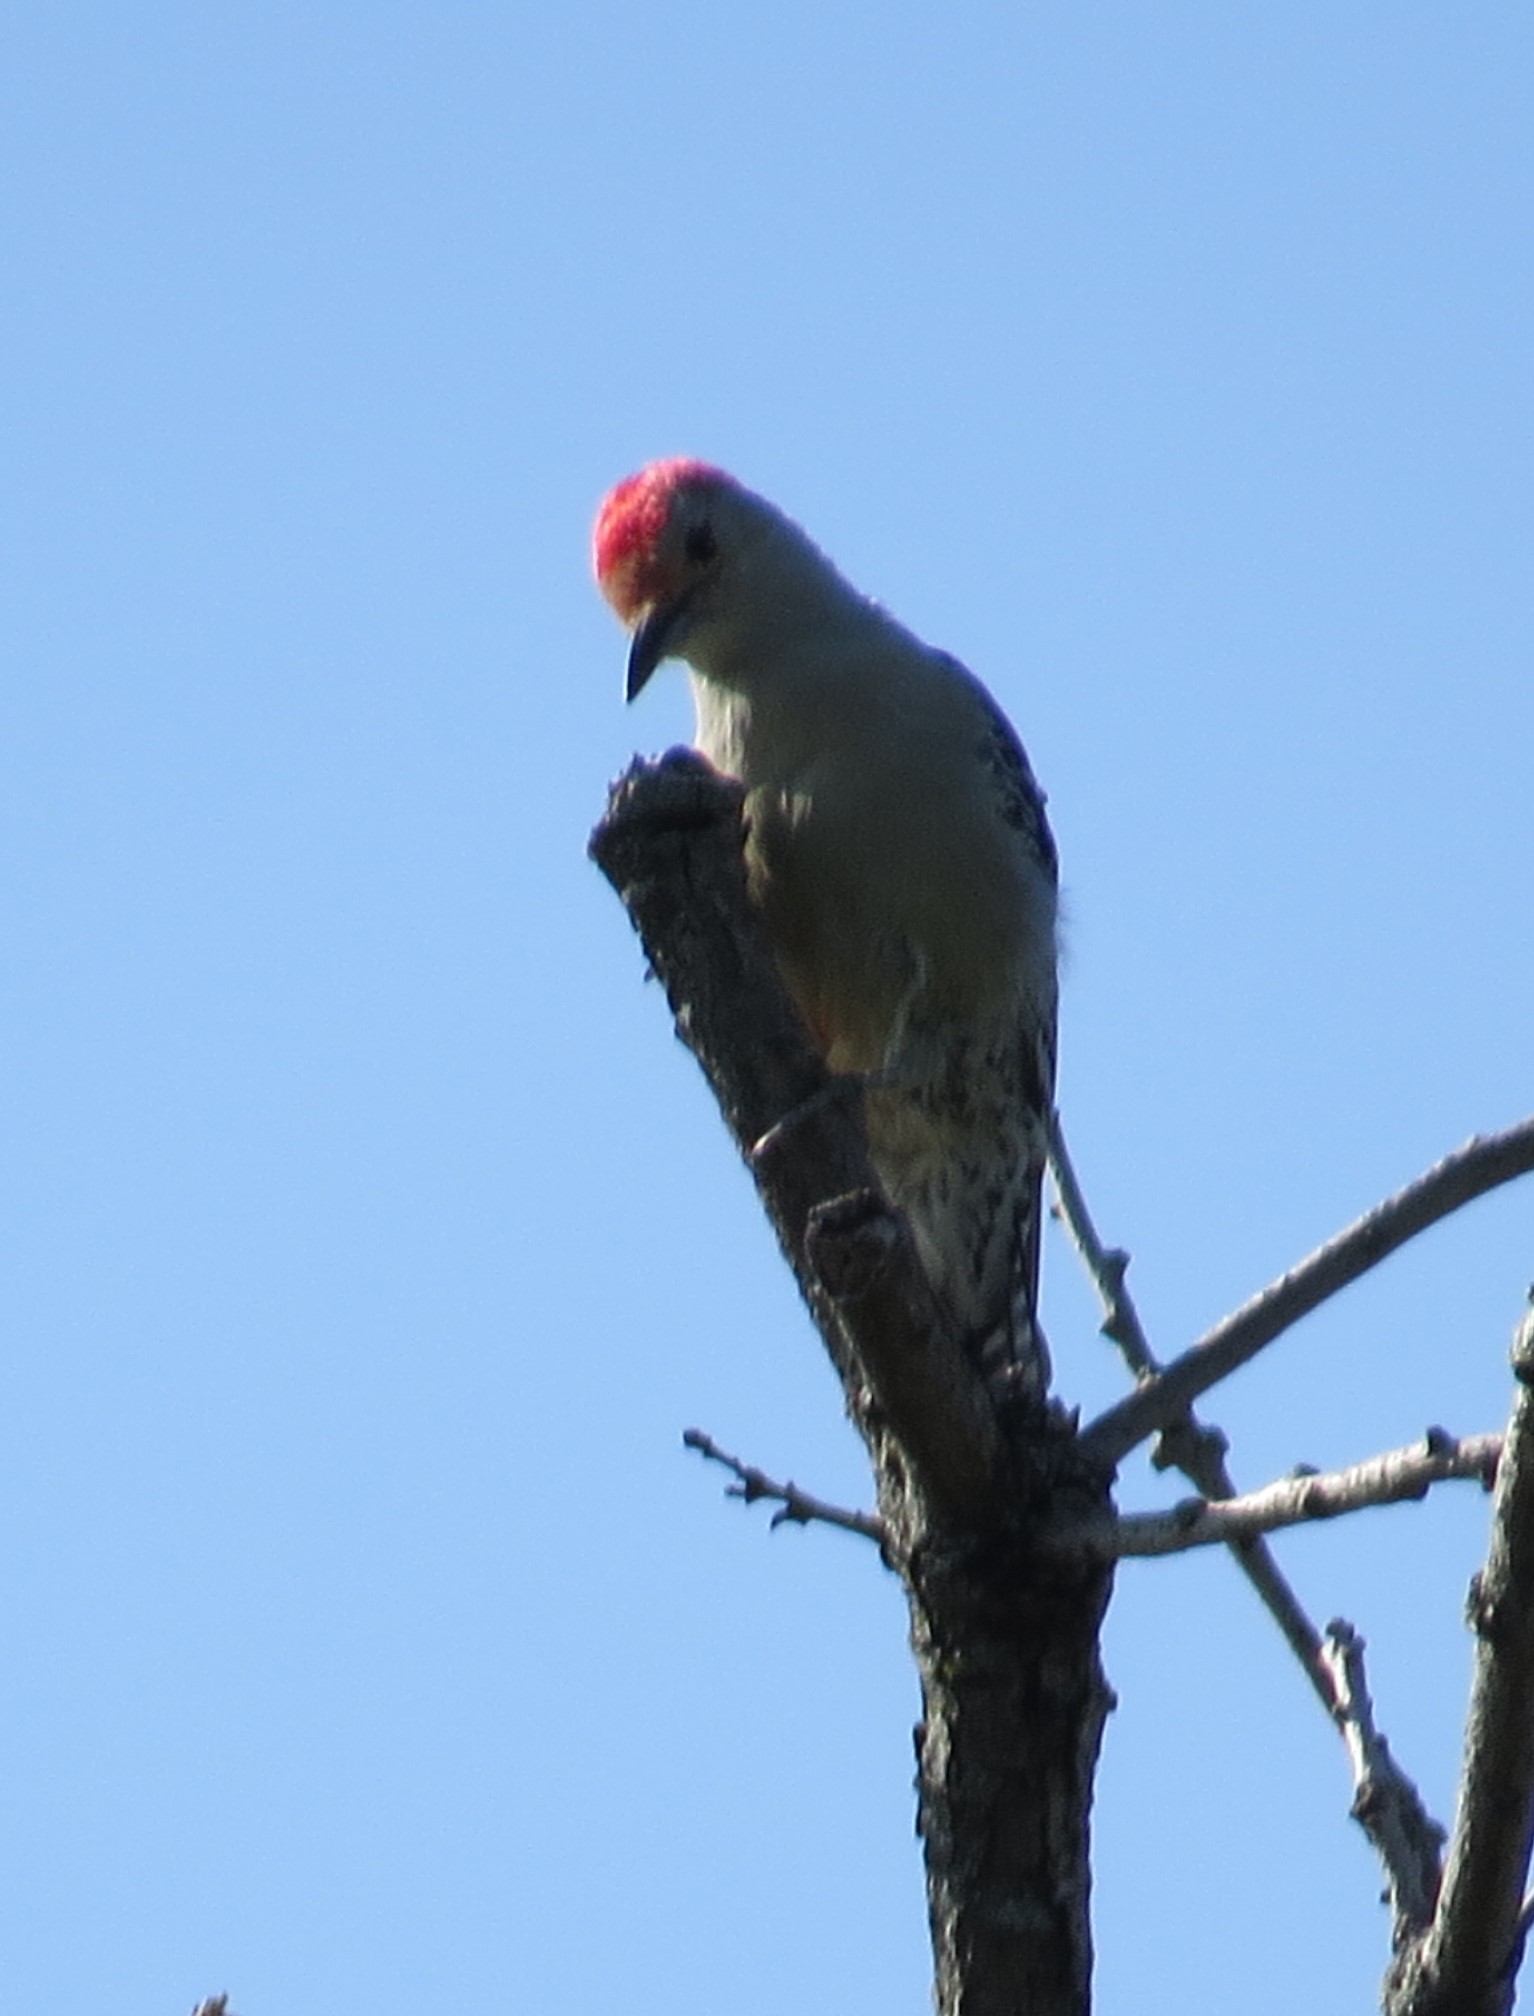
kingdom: Animalia
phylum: Chordata
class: Aves
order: Piciformes
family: Picidae
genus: Melanerpes
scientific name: Melanerpes carolinus
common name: Red-bellied woodpecker
